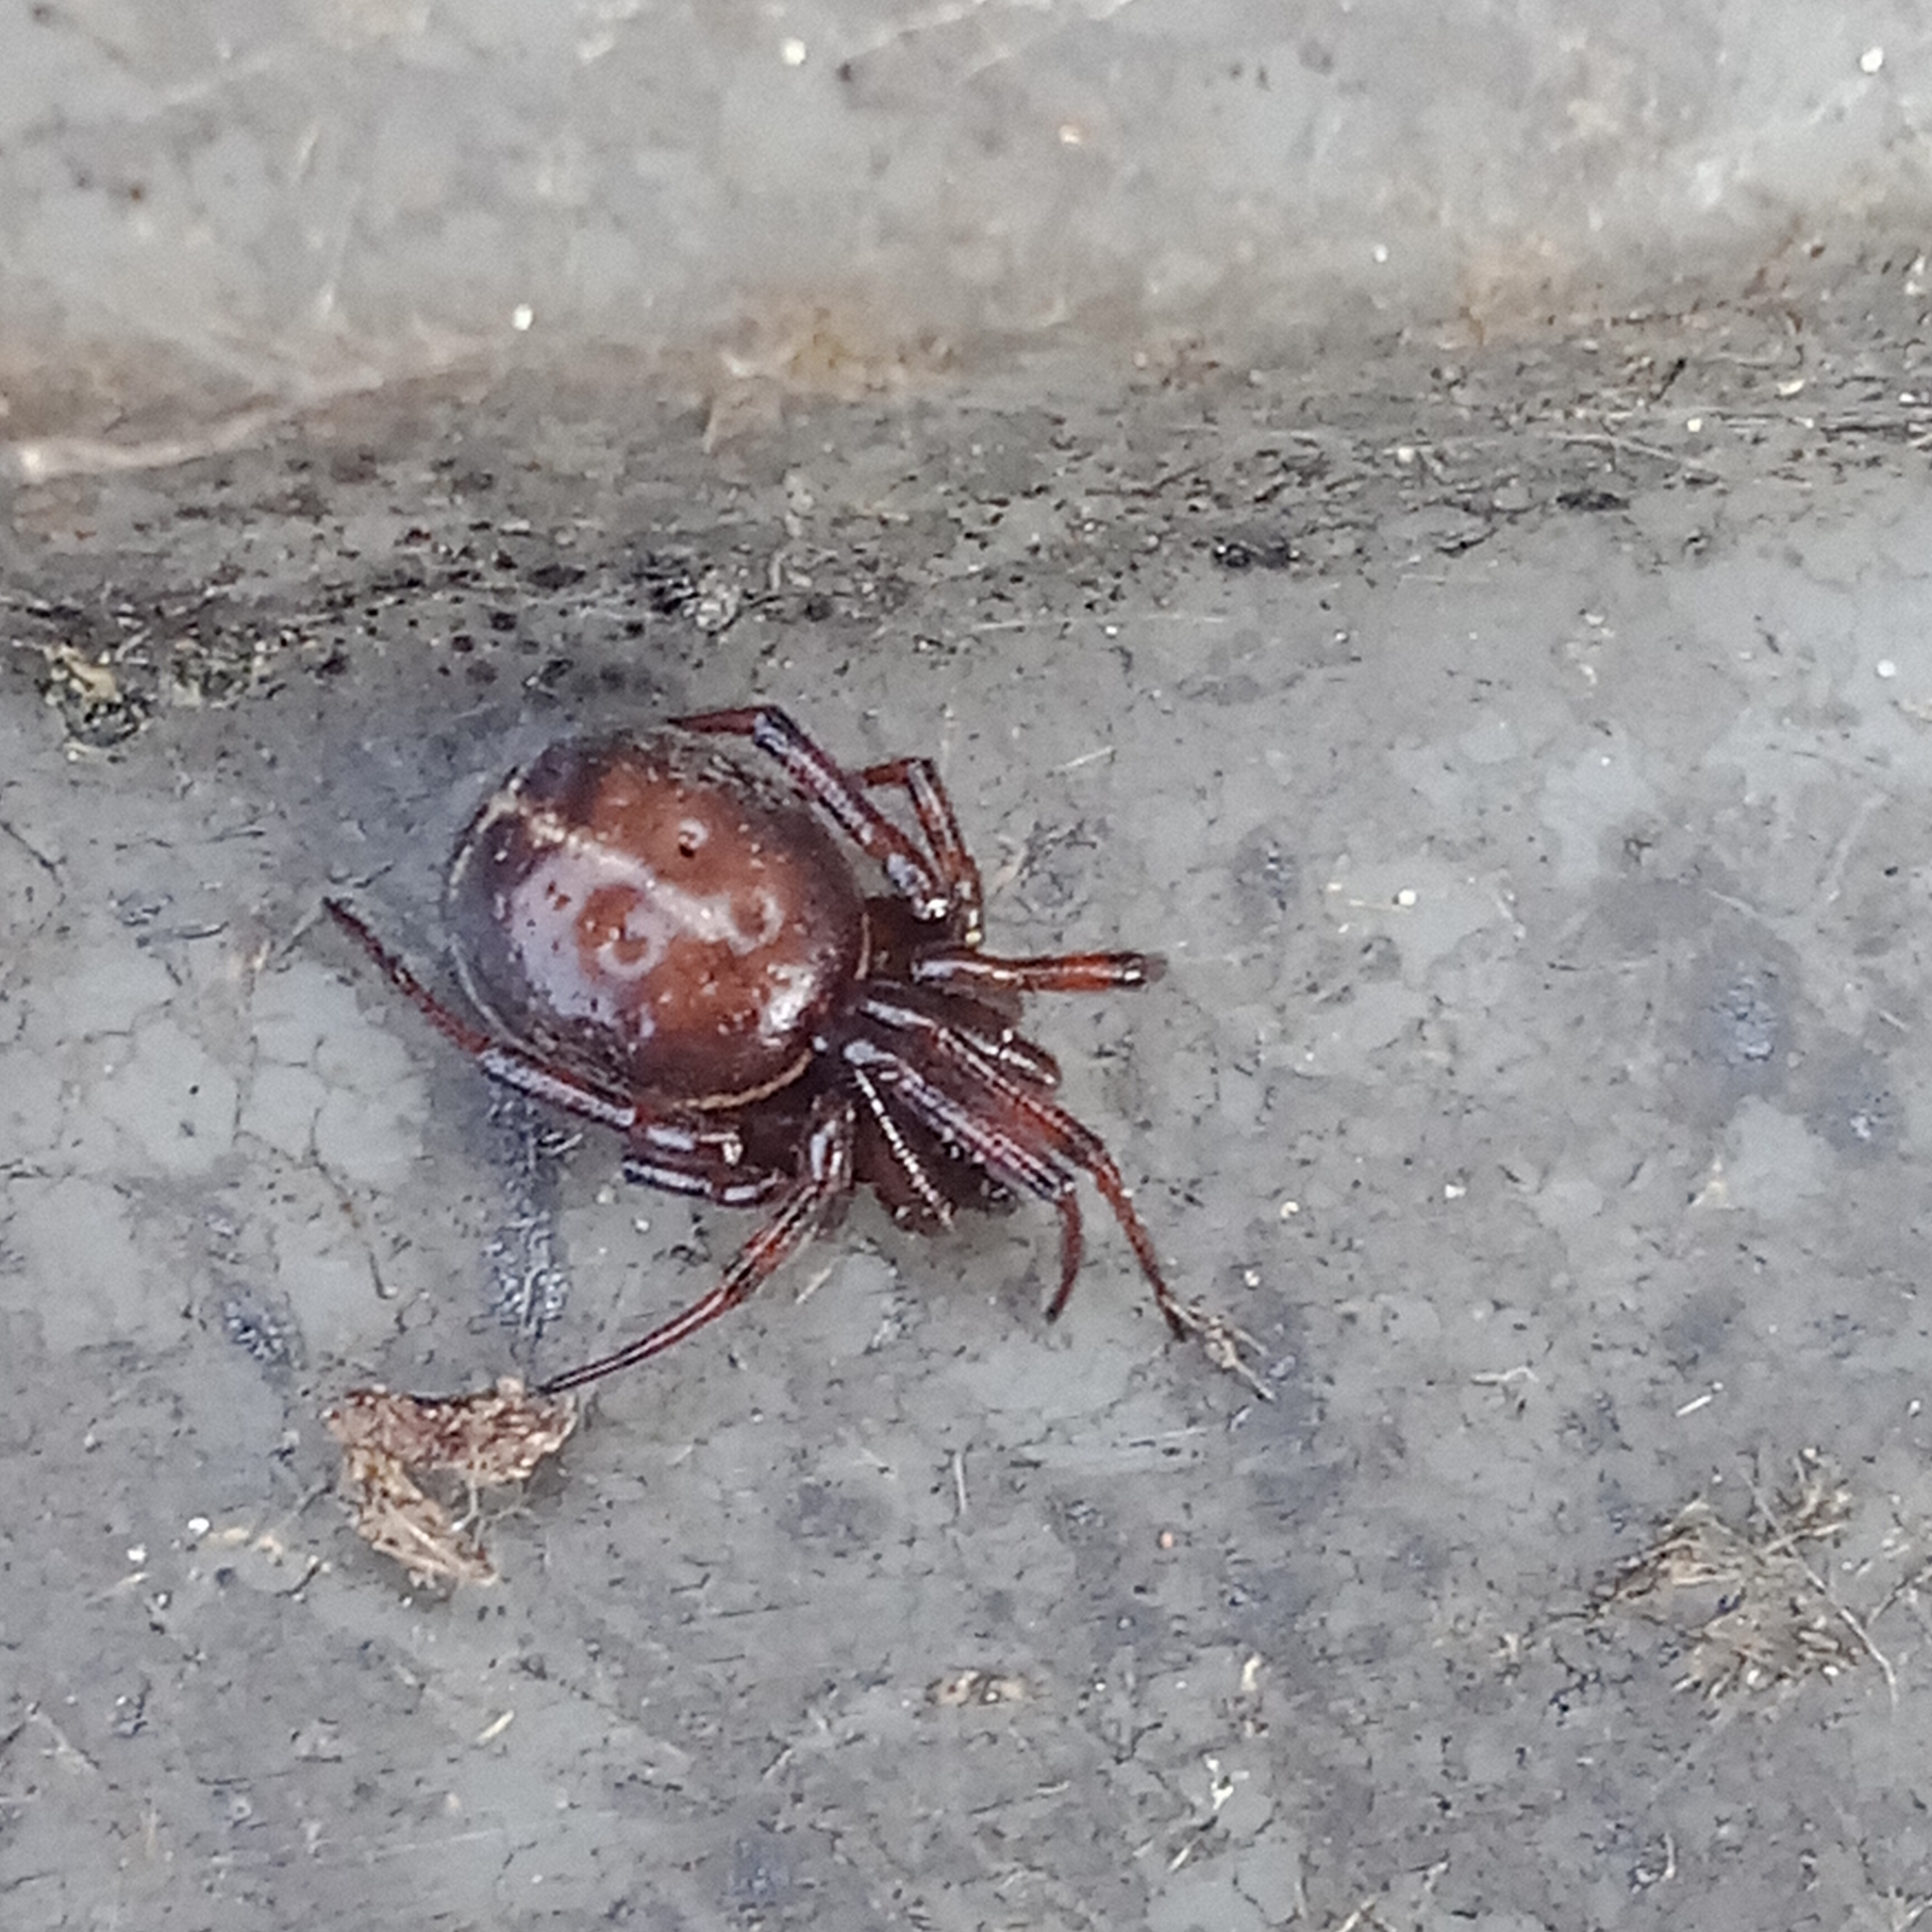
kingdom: Animalia
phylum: Arthropoda
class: Arachnida
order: Araneae
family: Theridiidae
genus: Steatoda
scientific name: Steatoda bipunctata
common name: False widow
